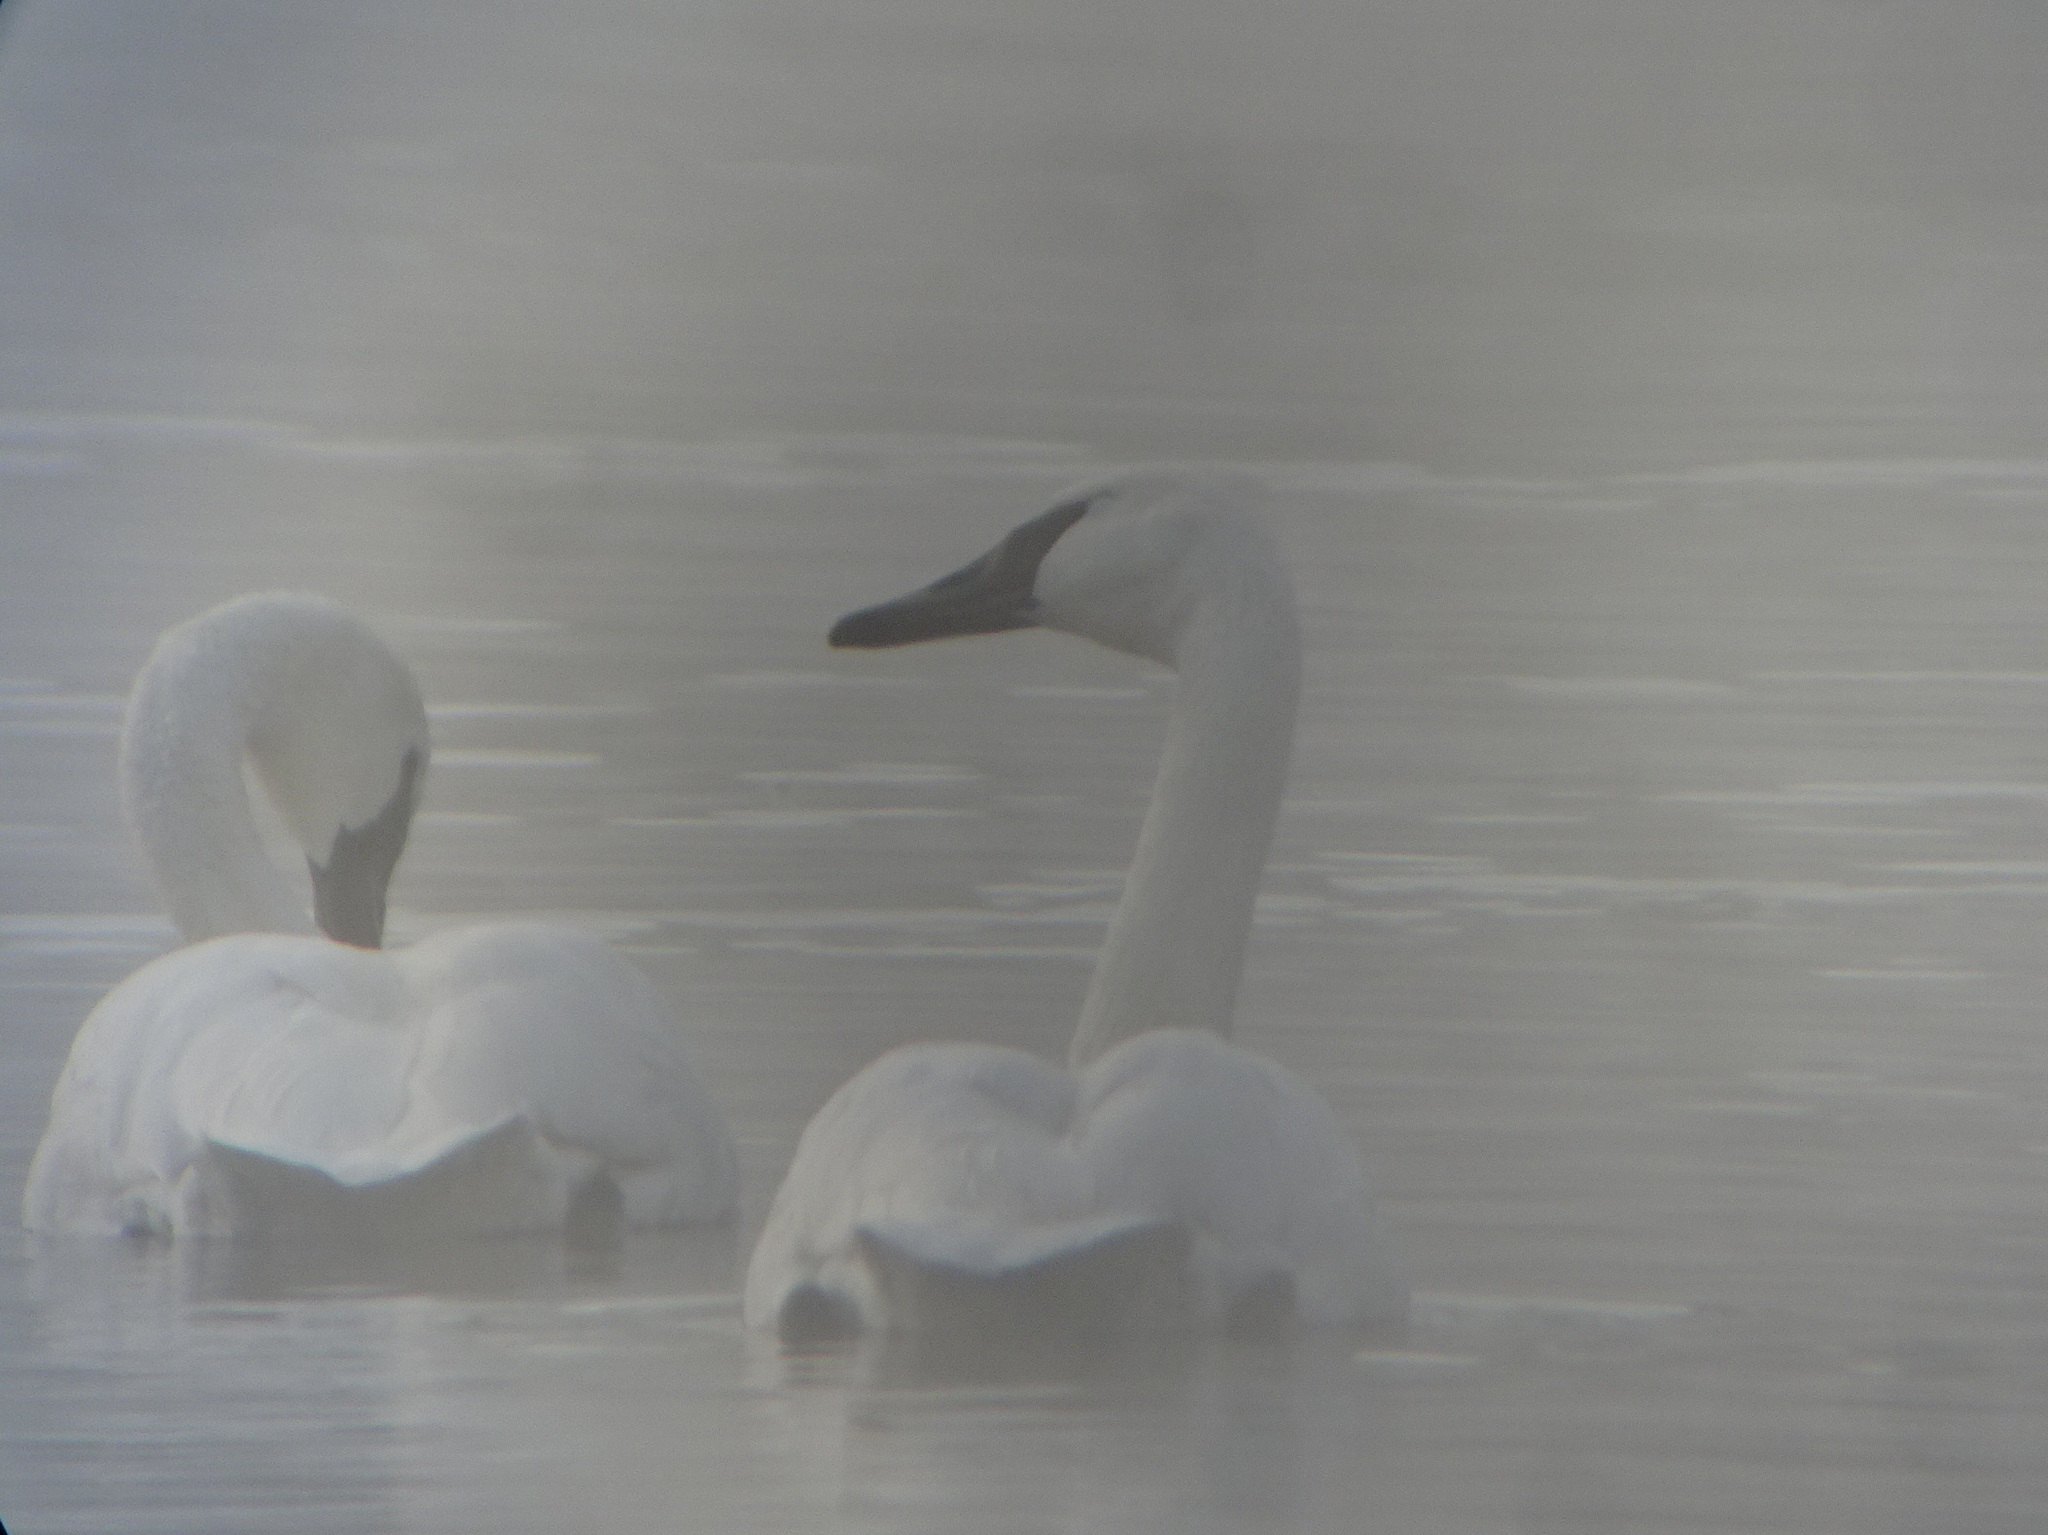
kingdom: Animalia
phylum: Chordata
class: Aves
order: Anseriformes
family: Anatidae
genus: Cygnus
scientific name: Cygnus buccinator
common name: Trumpeter swan
